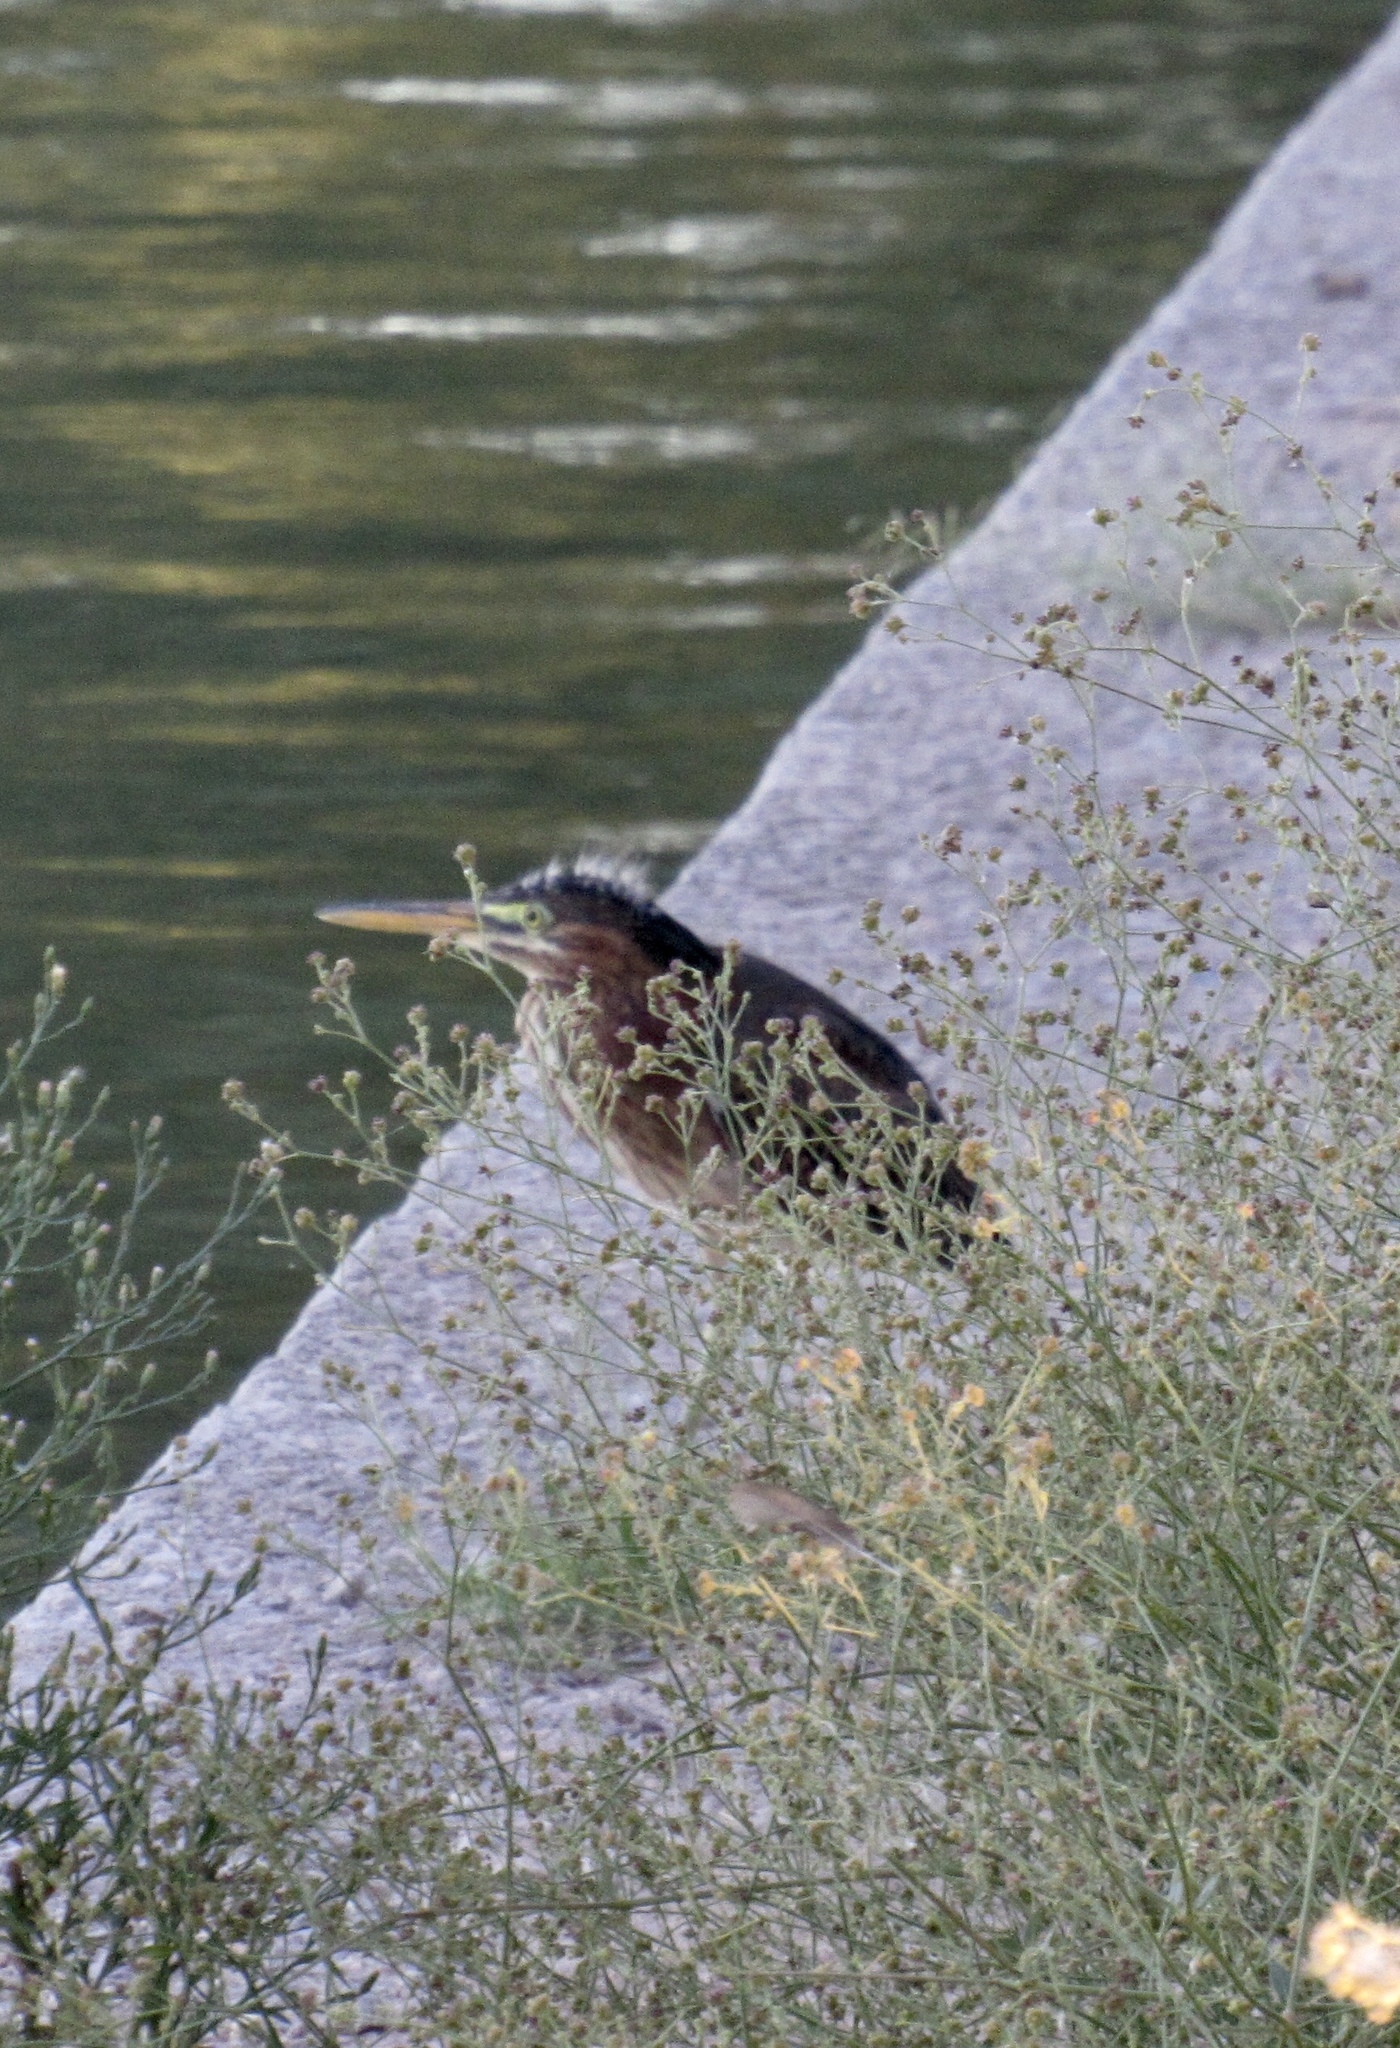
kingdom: Animalia
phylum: Chordata
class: Aves
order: Pelecaniformes
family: Ardeidae
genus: Butorides
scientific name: Butorides virescens
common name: Green heron
